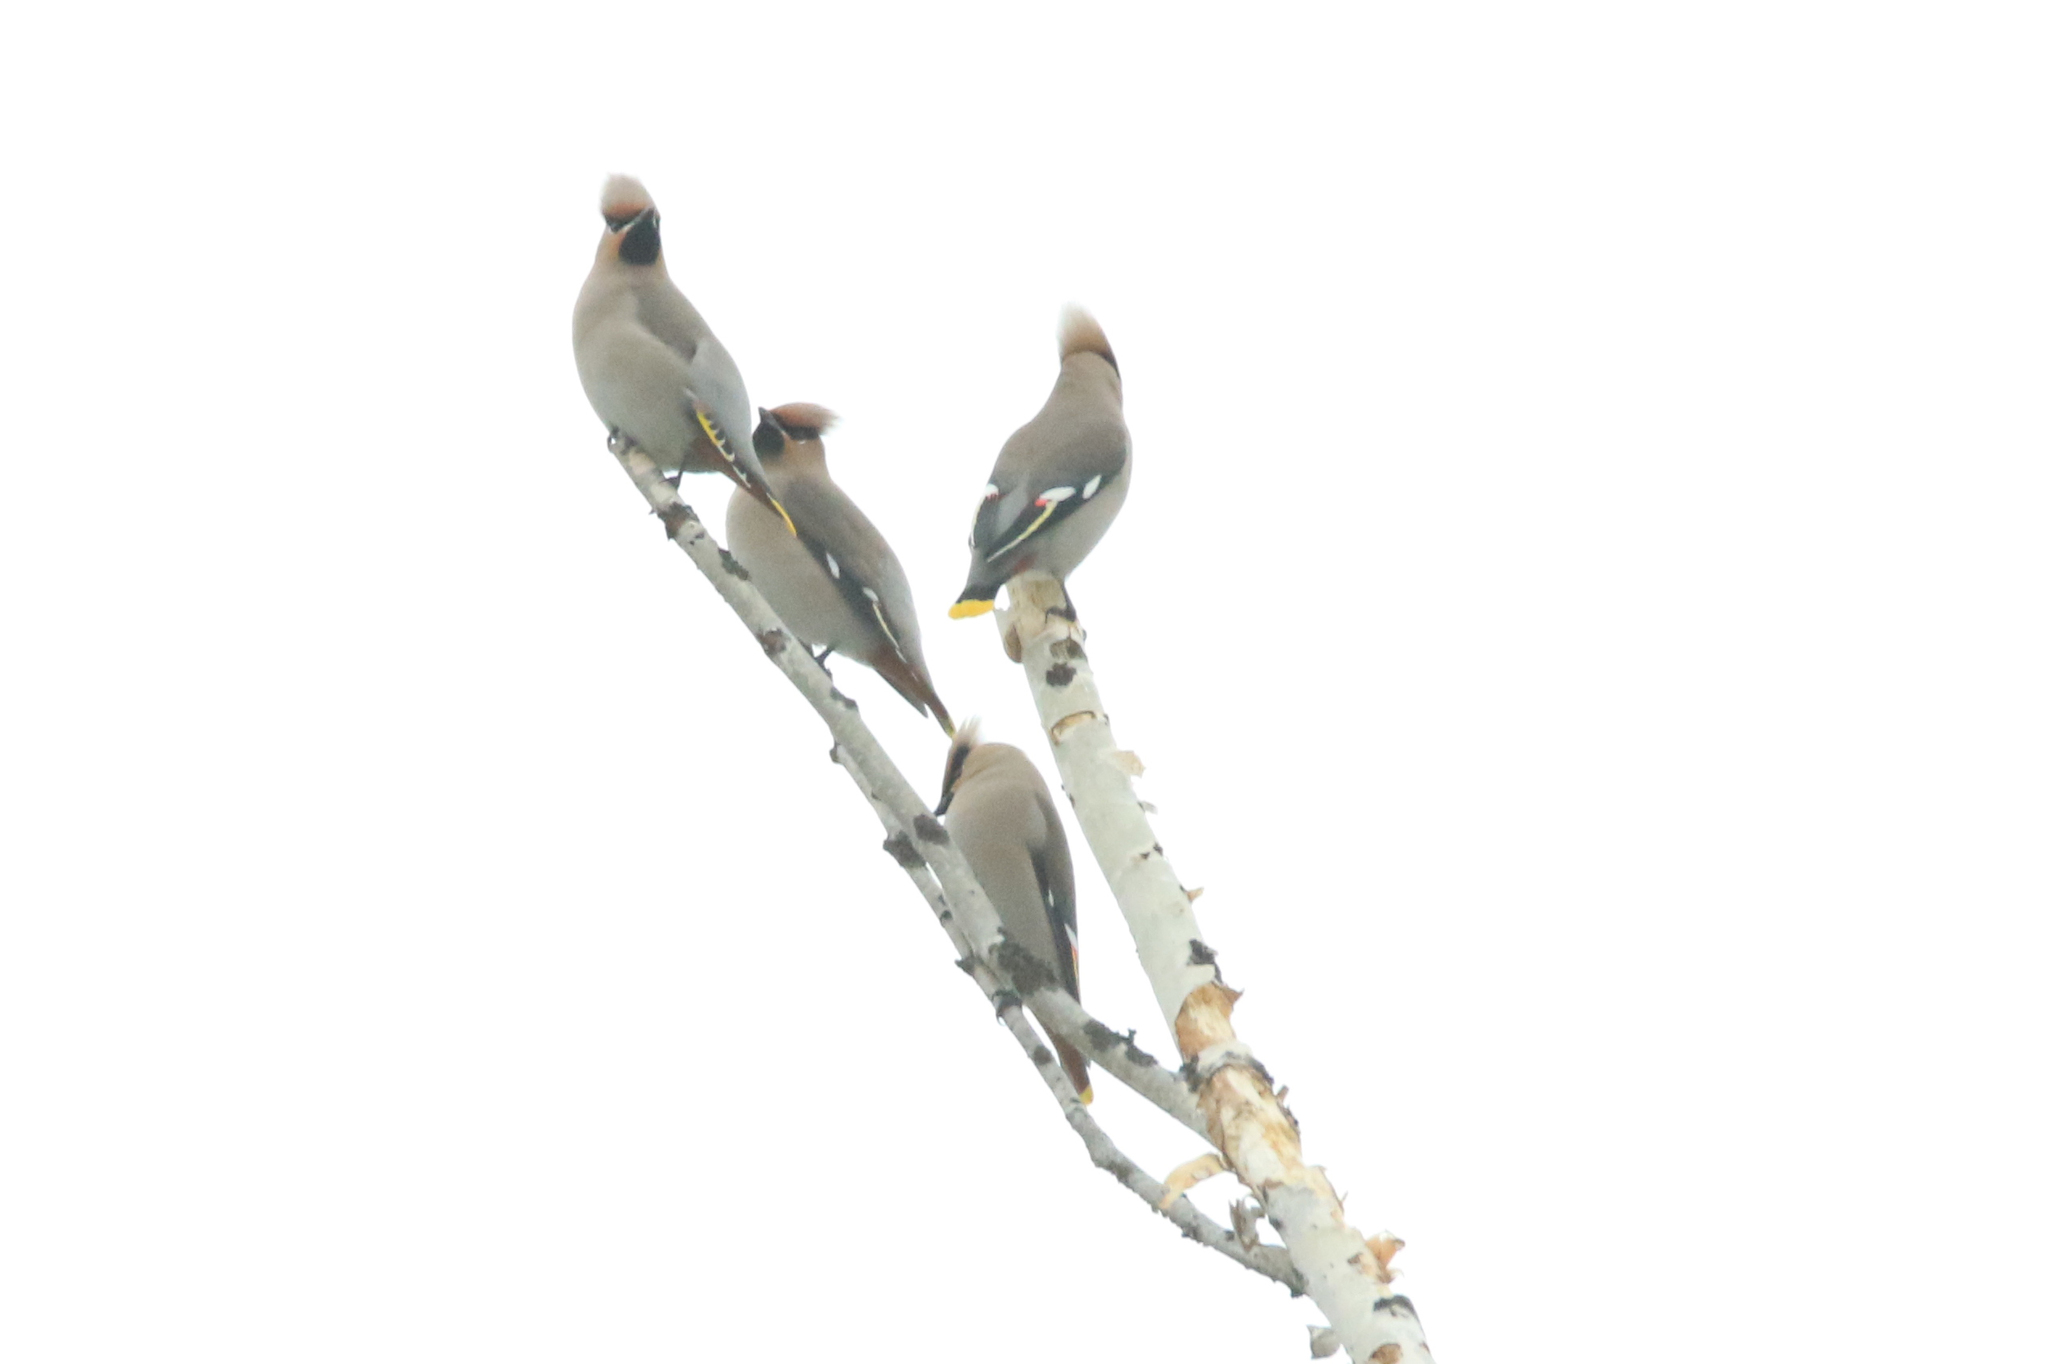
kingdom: Animalia
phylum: Chordata
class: Aves
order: Passeriformes
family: Bombycillidae
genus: Bombycilla
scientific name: Bombycilla garrulus
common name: Bohemian waxwing
